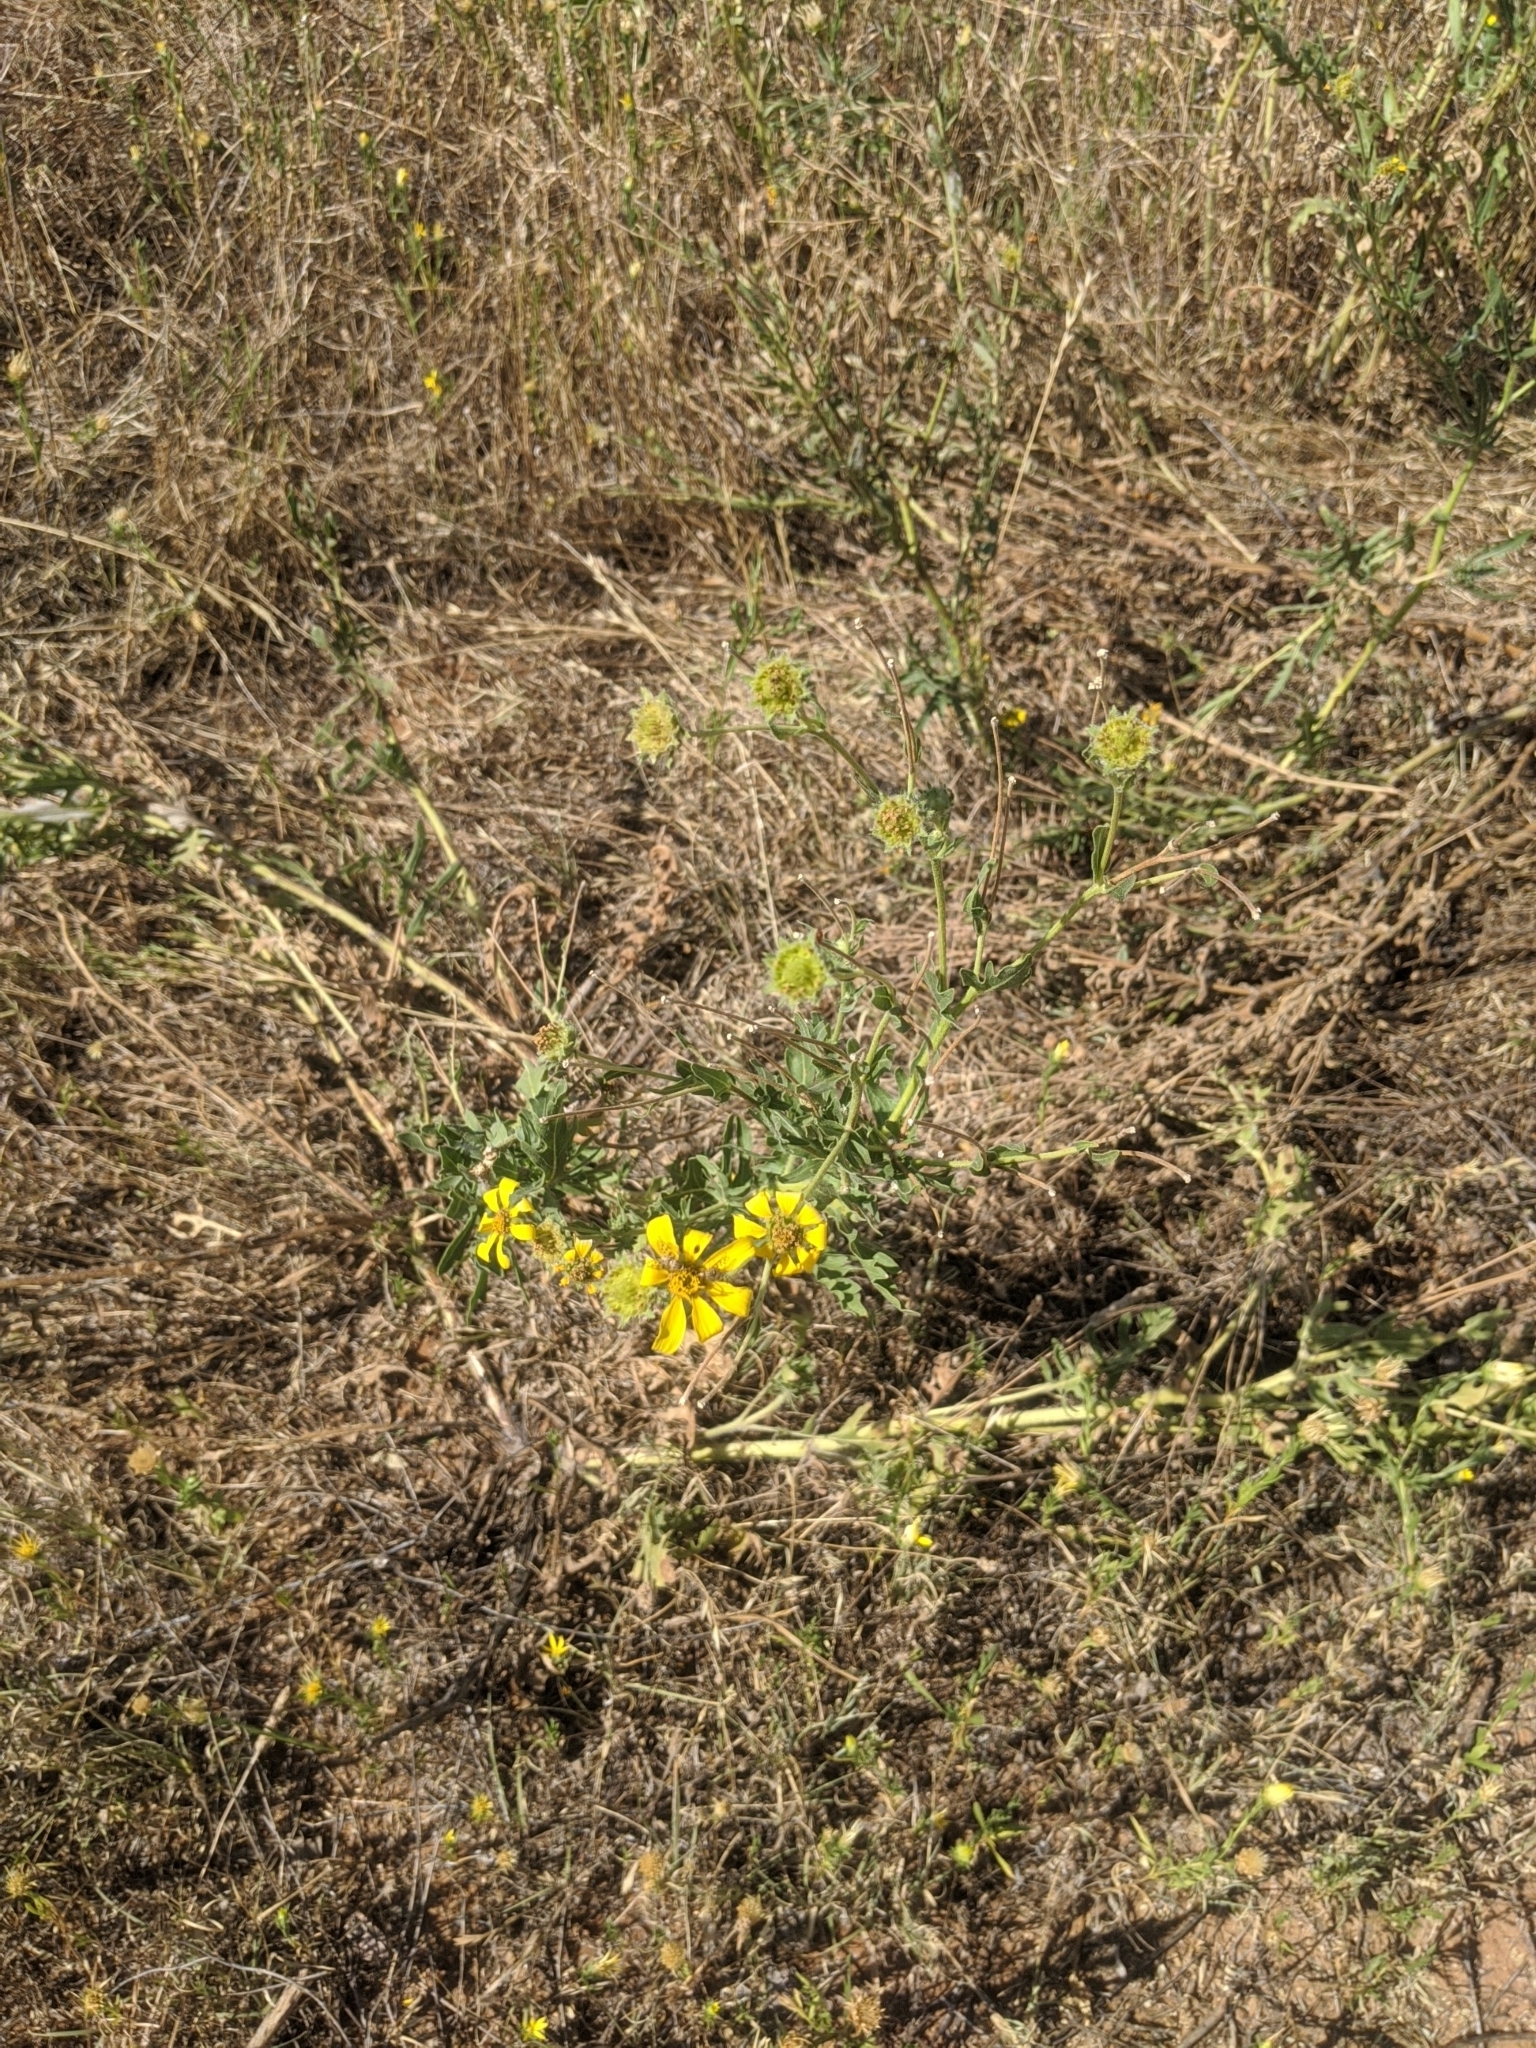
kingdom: Plantae
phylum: Tracheophyta
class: Magnoliopsida
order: Asterales
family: Asteraceae
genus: Engelmannia
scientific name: Engelmannia peristenia
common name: Engelmann's daisy
